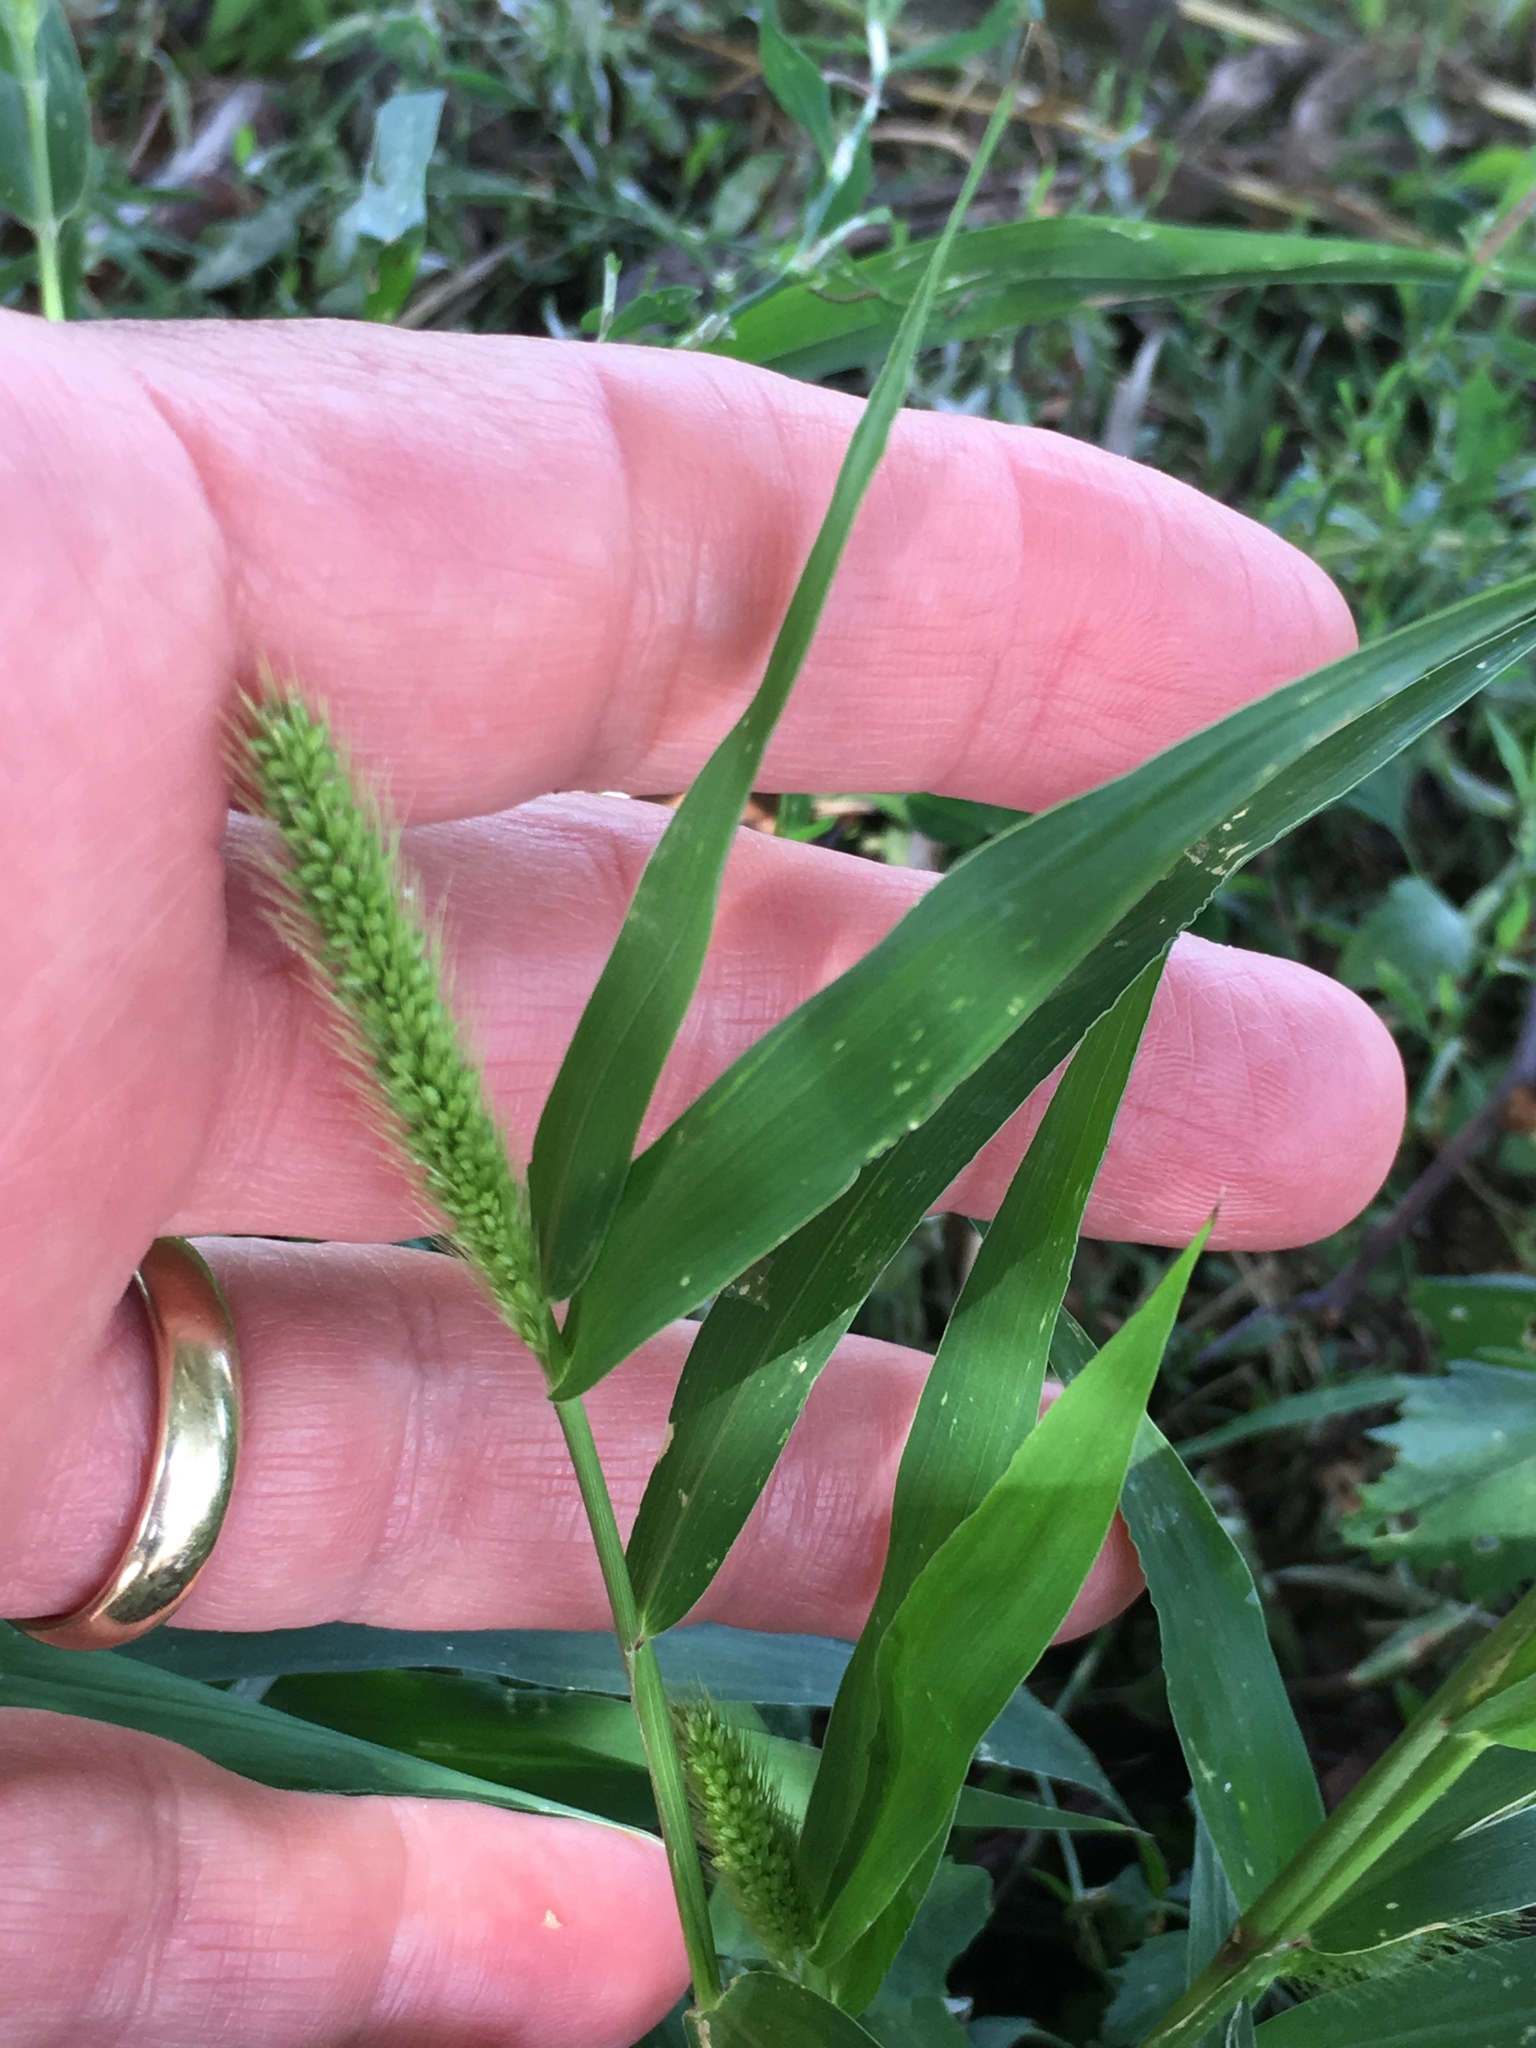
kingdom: Plantae
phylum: Tracheophyta
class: Liliopsida
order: Poales
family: Poaceae
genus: Setaria
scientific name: Setaria viridis
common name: Green bristlegrass
